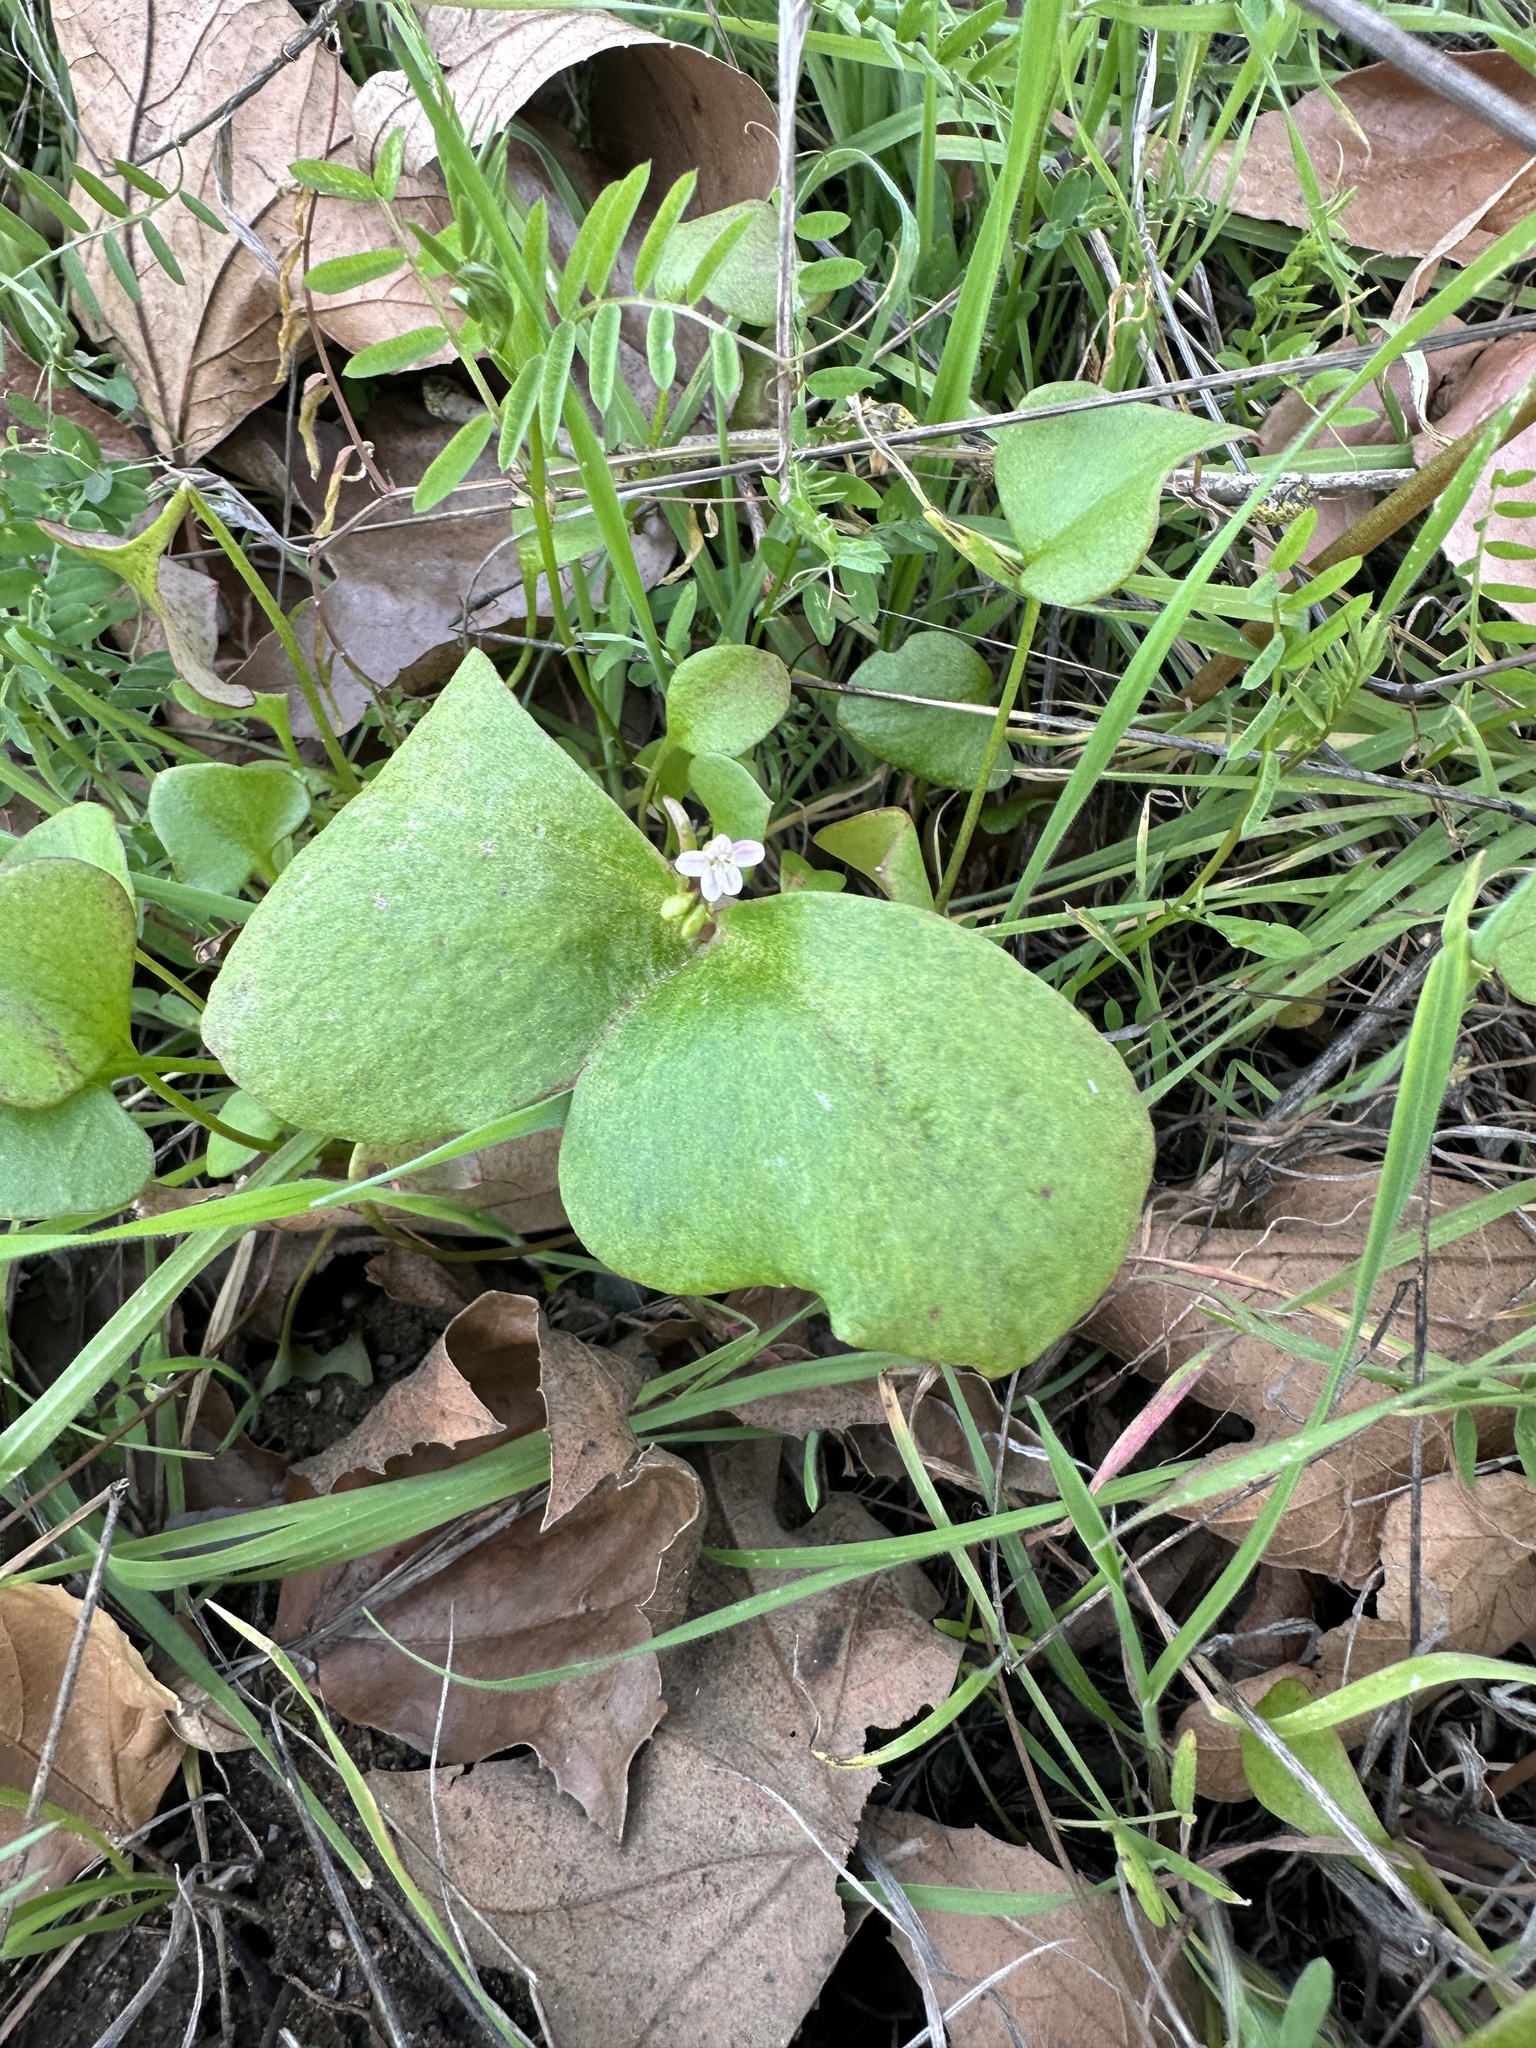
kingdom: Plantae
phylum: Tracheophyta
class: Magnoliopsida
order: Caryophyllales
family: Montiaceae
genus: Claytonia
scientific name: Claytonia perfoliata
